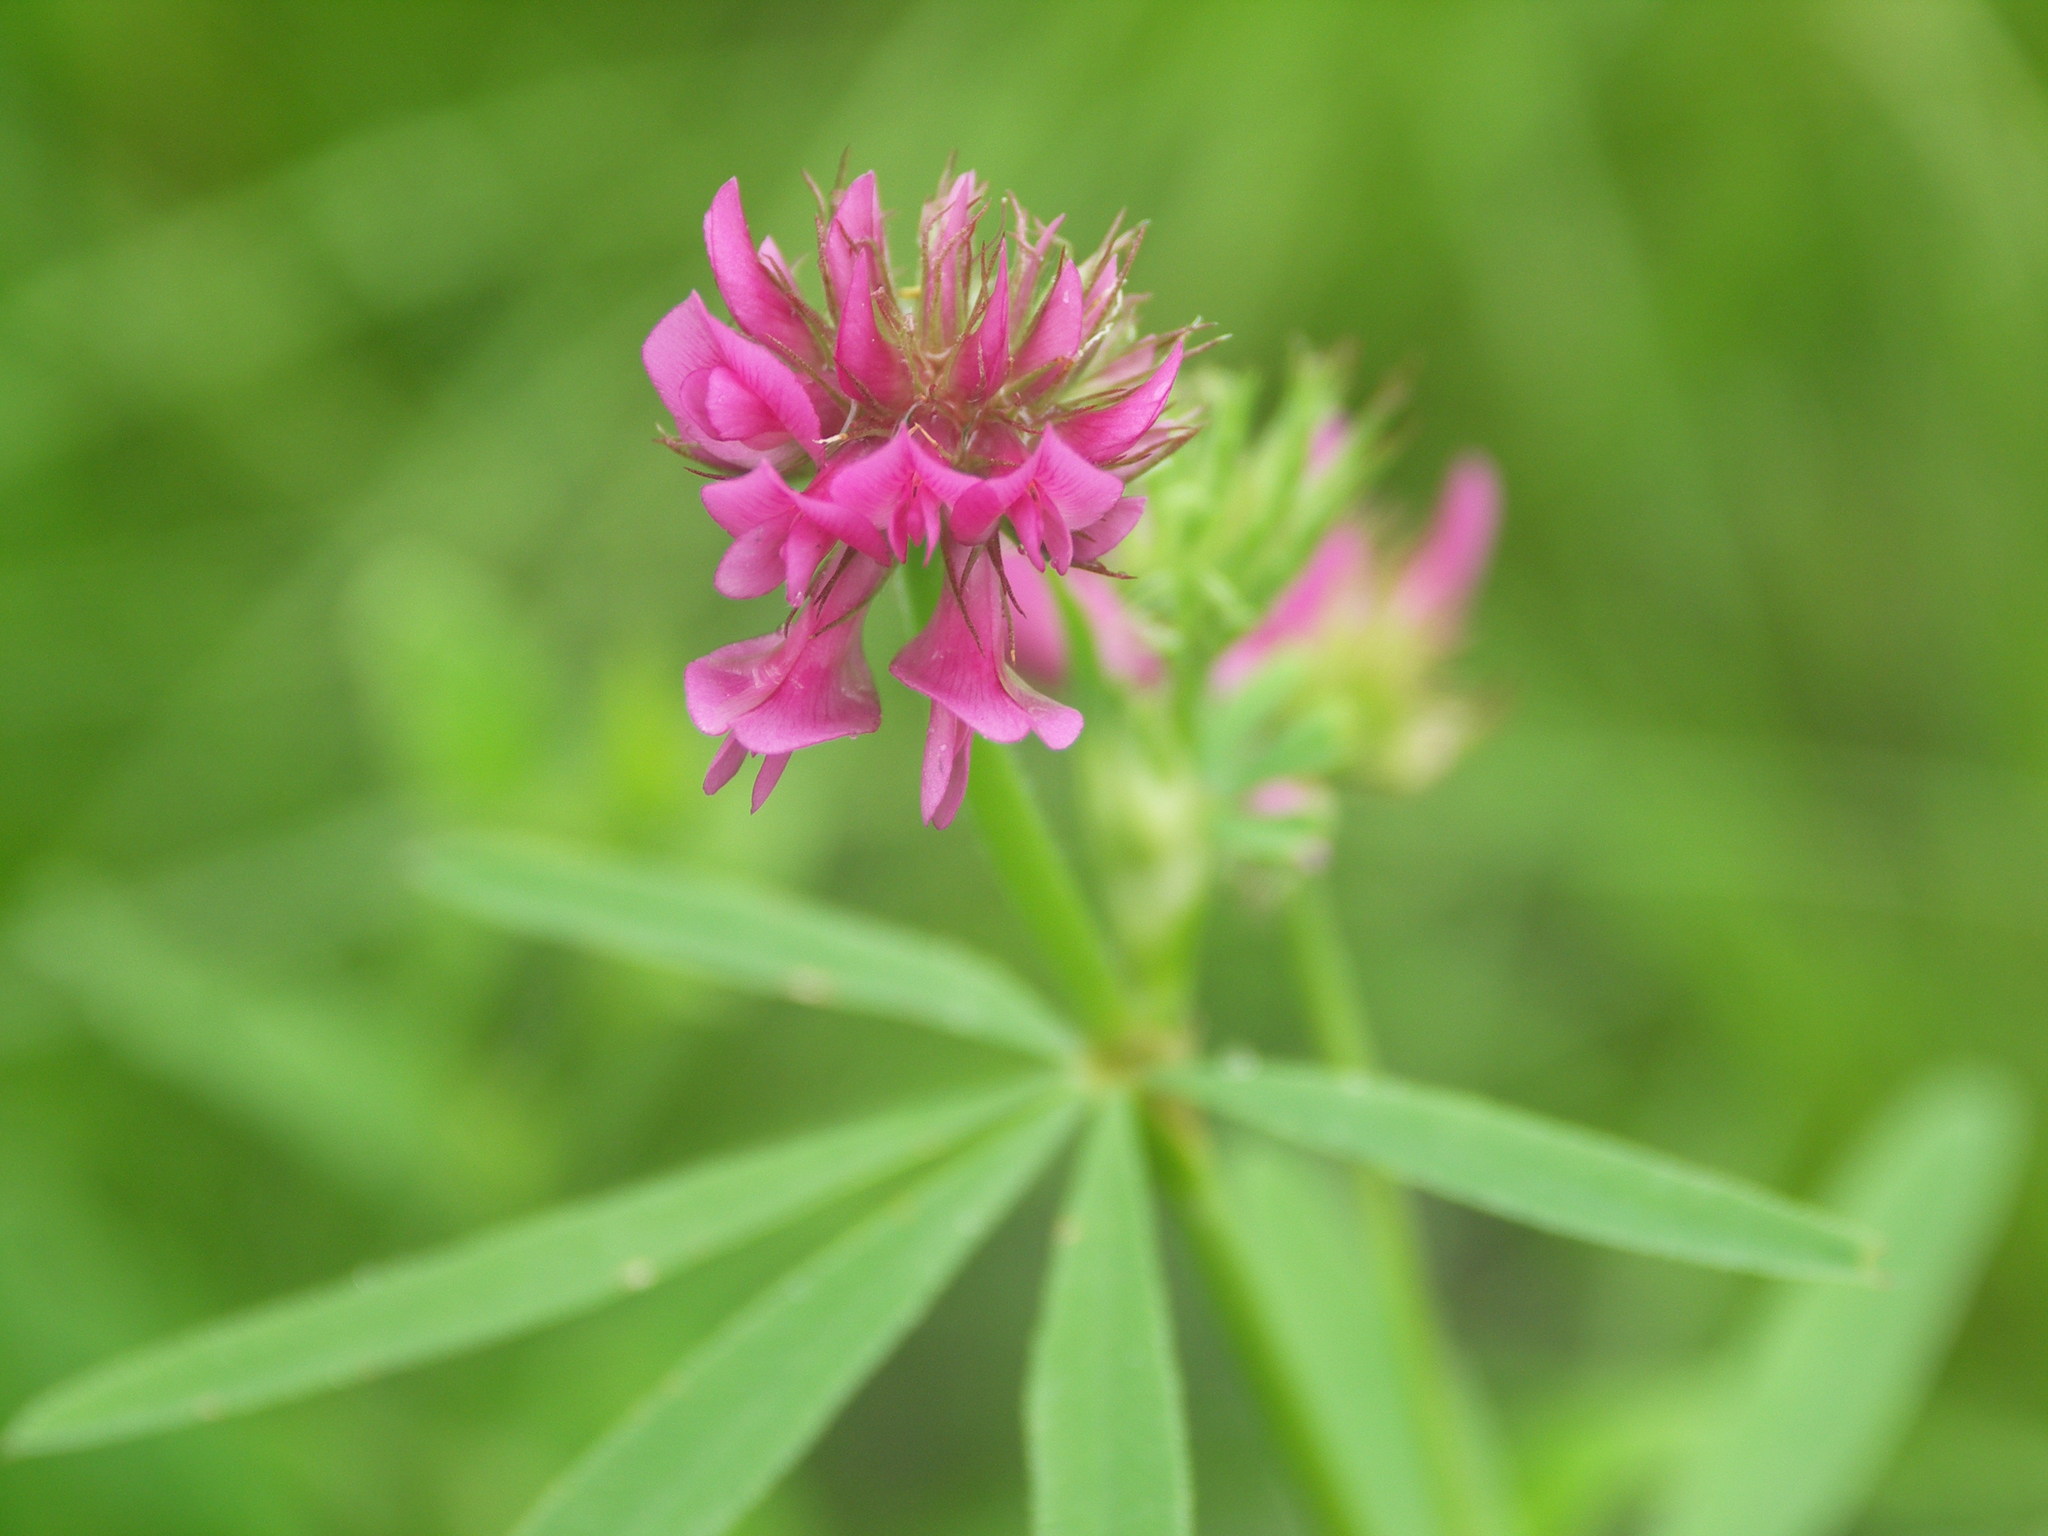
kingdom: Plantae
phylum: Tracheophyta
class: Magnoliopsida
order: Fabales
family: Fabaceae
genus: Trifolium
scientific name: Trifolium lupinaster
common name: Lupine clover
